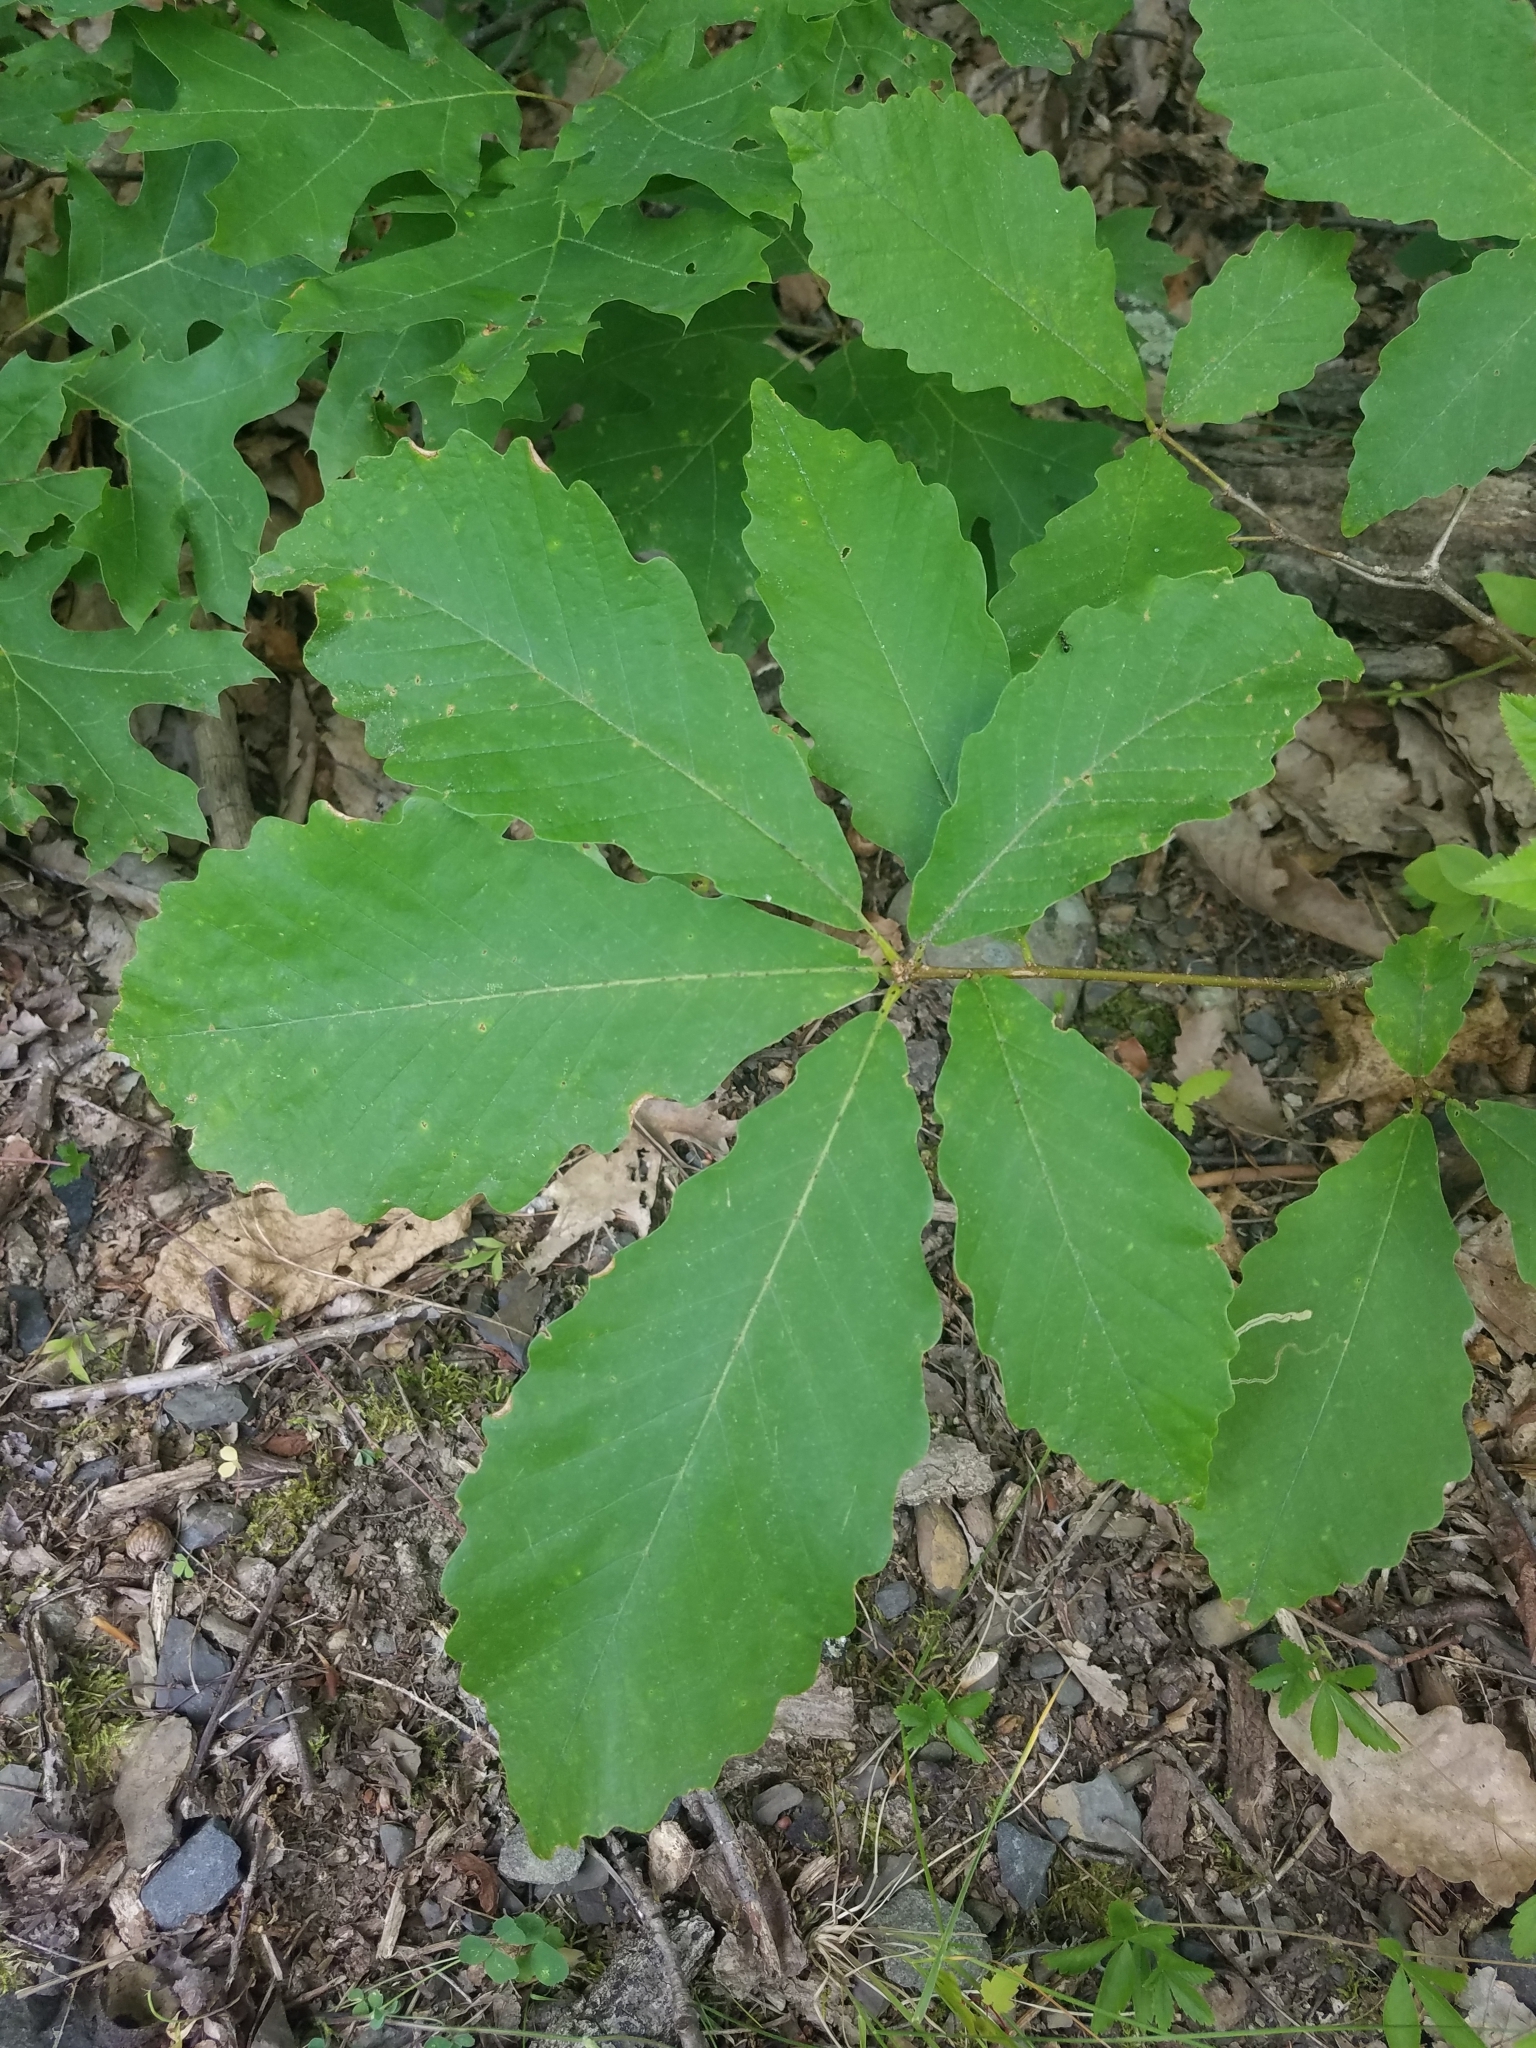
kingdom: Plantae
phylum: Tracheophyta
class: Magnoliopsida
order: Fagales
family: Fagaceae
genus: Quercus
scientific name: Quercus montana
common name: Chestnut oak
